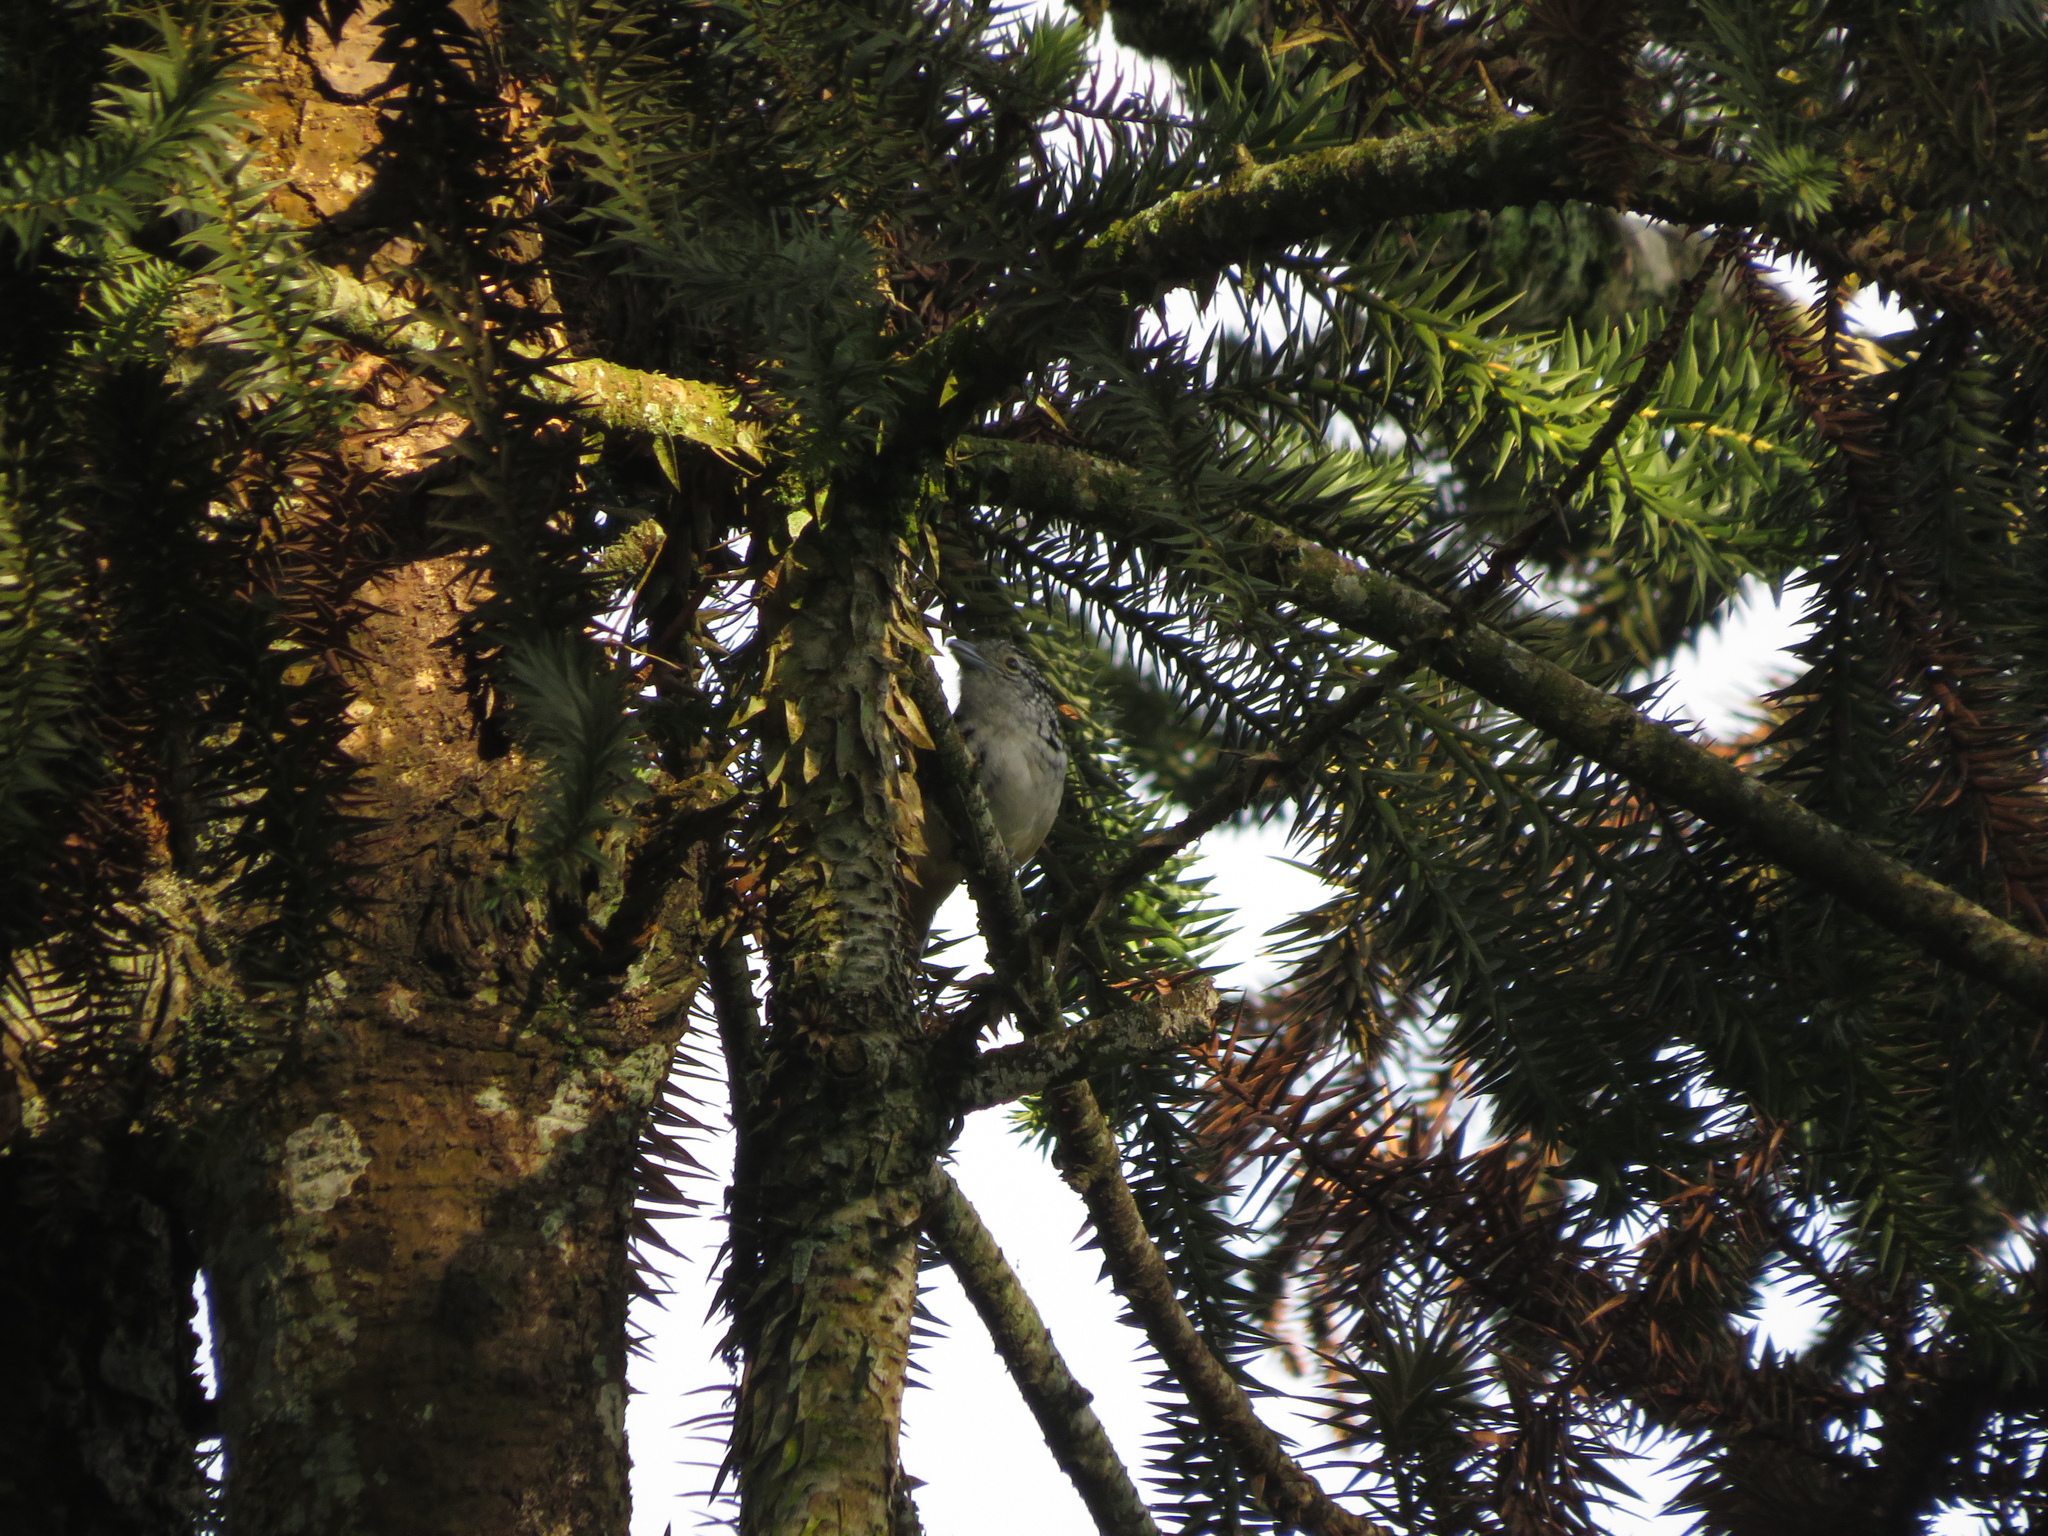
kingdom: Animalia
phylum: Chordata
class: Aves
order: Passeriformes
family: Thamnophilidae
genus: Hypoedaleus
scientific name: Hypoedaleus guttatus
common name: Spot-backed antshrike
